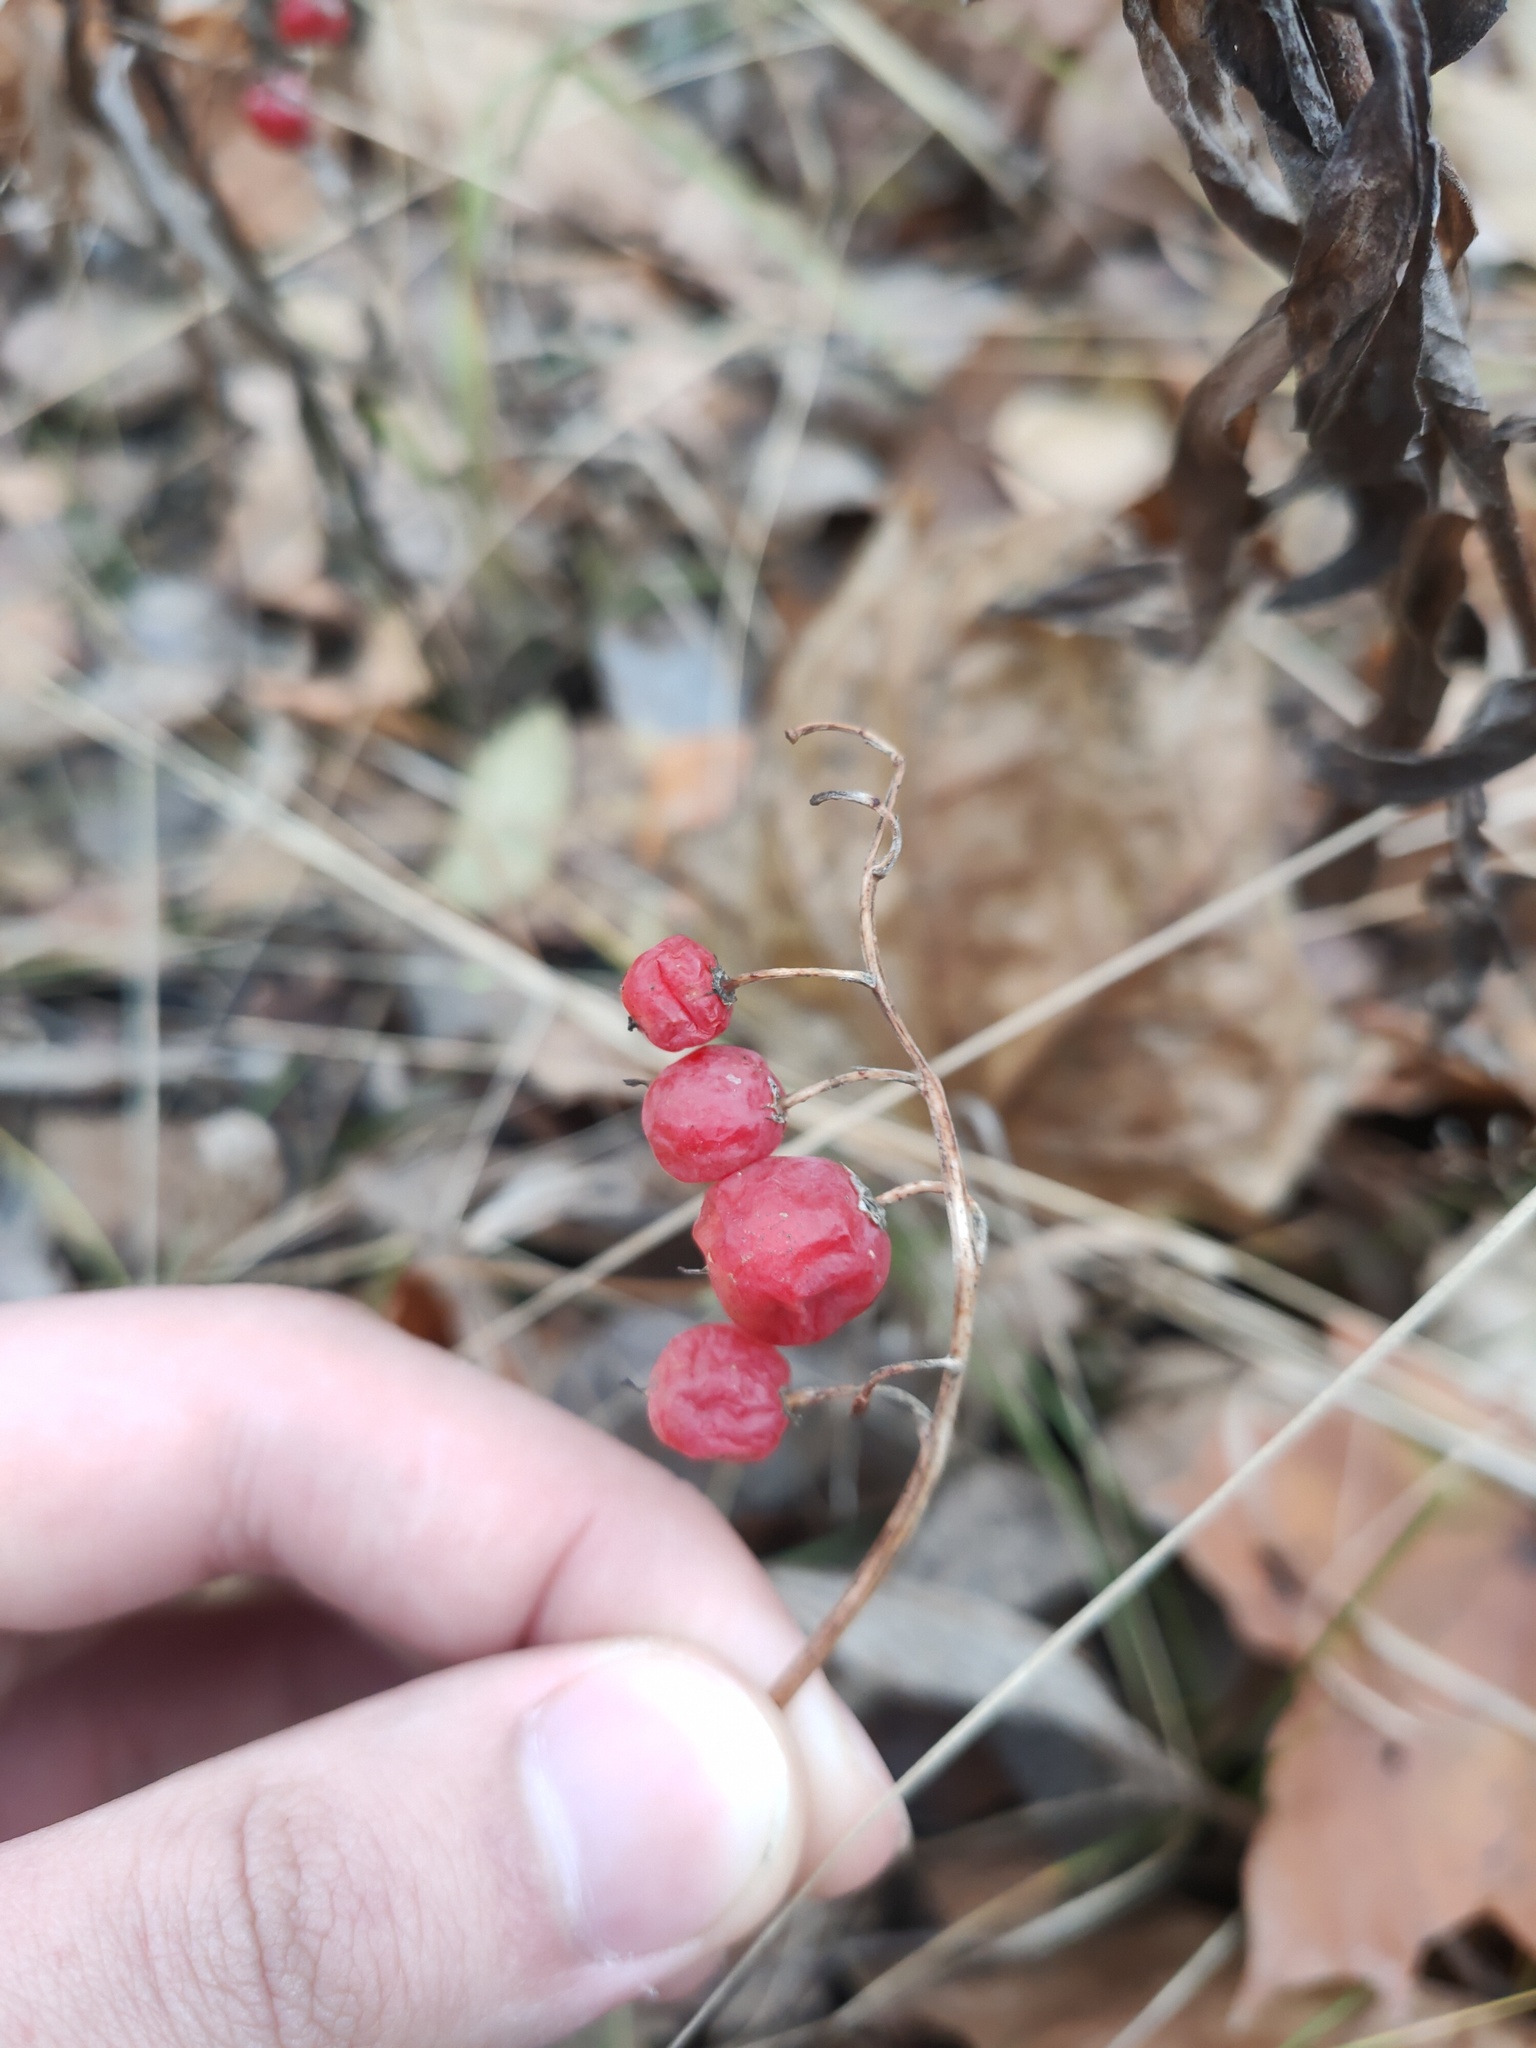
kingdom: Plantae
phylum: Tracheophyta
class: Liliopsida
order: Asparagales
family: Asparagaceae
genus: Convallaria
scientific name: Convallaria majalis
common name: Lily-of-the-valley
